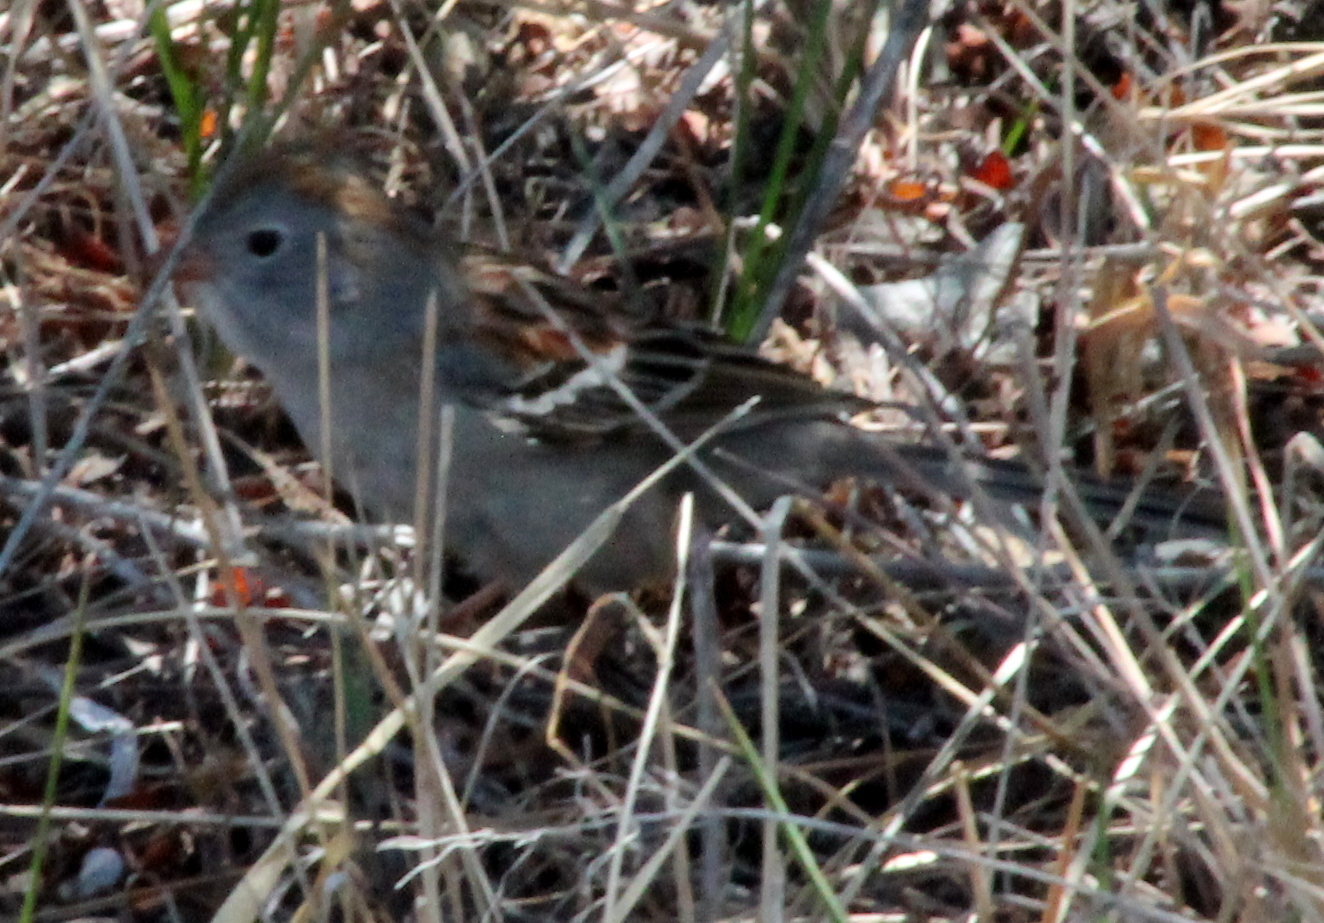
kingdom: Animalia
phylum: Chordata
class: Aves
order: Passeriformes
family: Passerellidae
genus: Spizella
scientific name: Spizella pusilla
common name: Field sparrow
